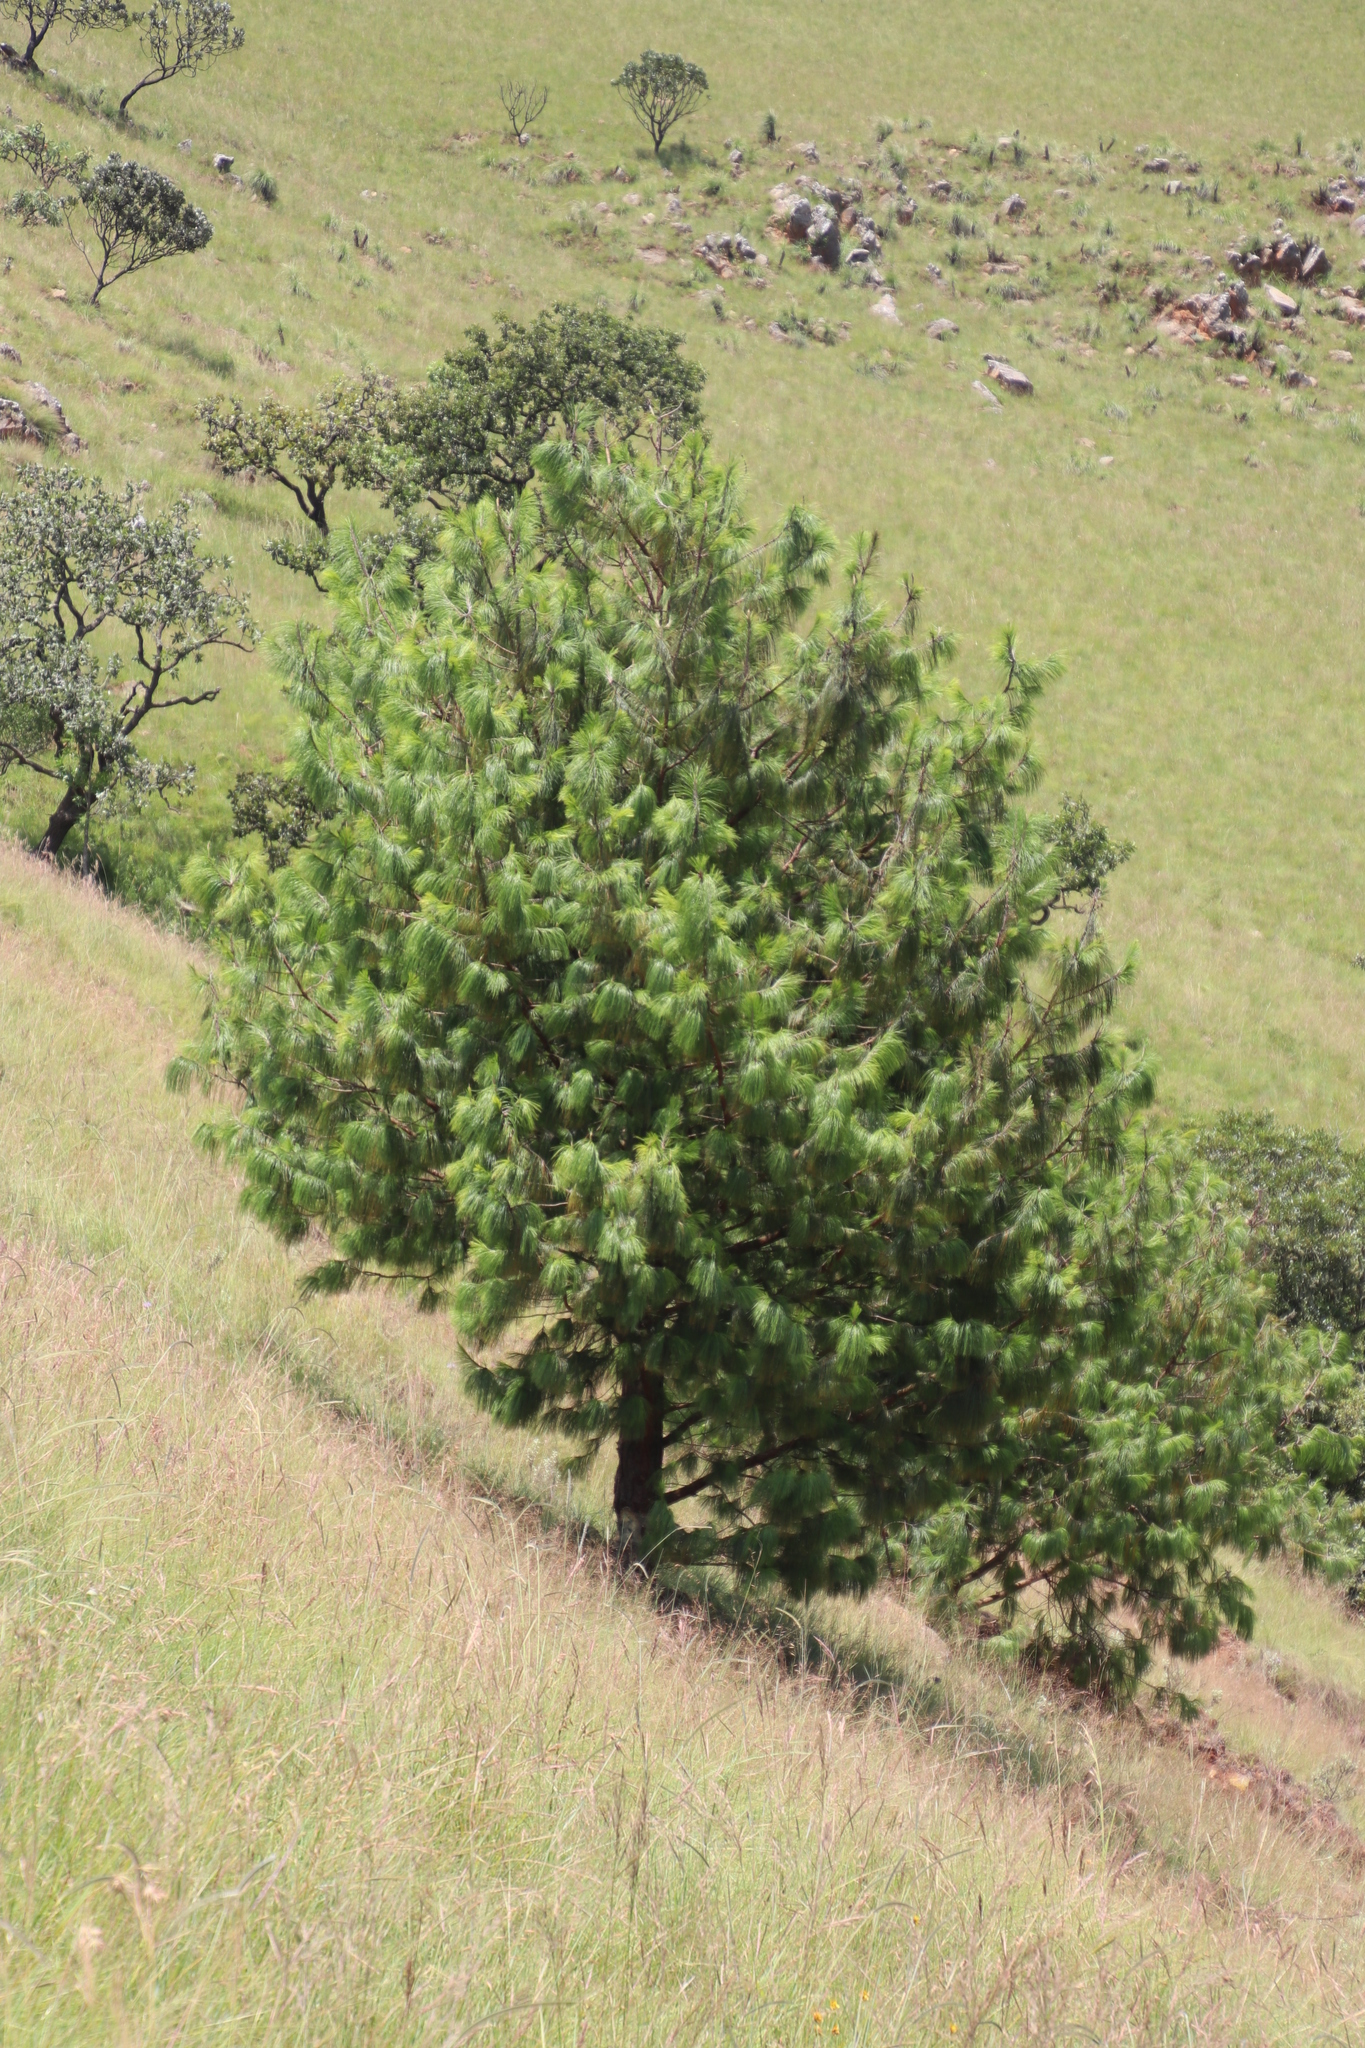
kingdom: Plantae
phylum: Tracheophyta
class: Pinopsida
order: Pinales
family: Pinaceae
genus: Pinus
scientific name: Pinus patula
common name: Mexican weeping pine
